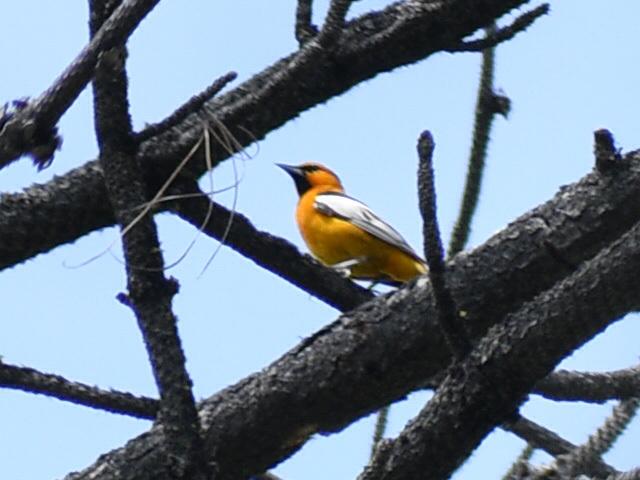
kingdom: Animalia
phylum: Chordata
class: Aves
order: Passeriformes
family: Icteridae
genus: Icterus
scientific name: Icterus bullockii
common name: Bullock's oriole
